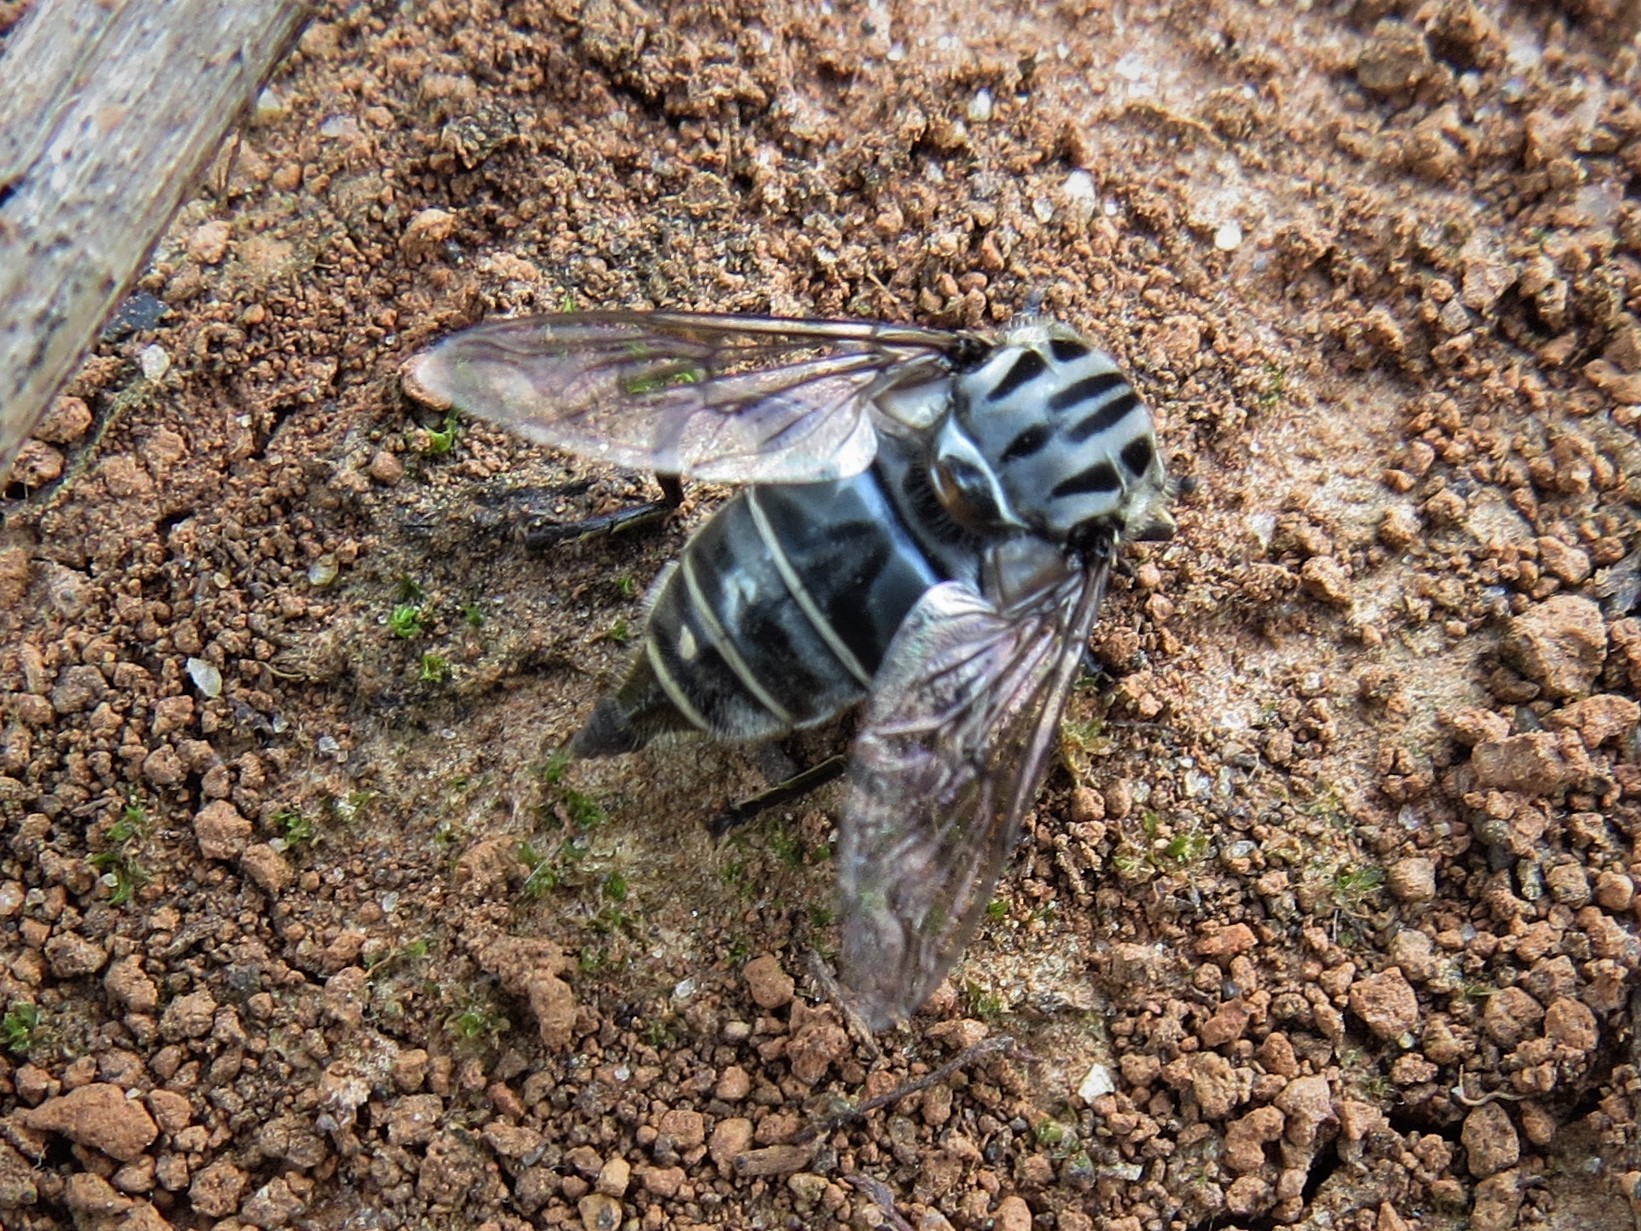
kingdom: Animalia
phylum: Arthropoda
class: Insecta
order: Diptera
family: Syrphidae
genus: Palpada
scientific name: Palpada furcata
